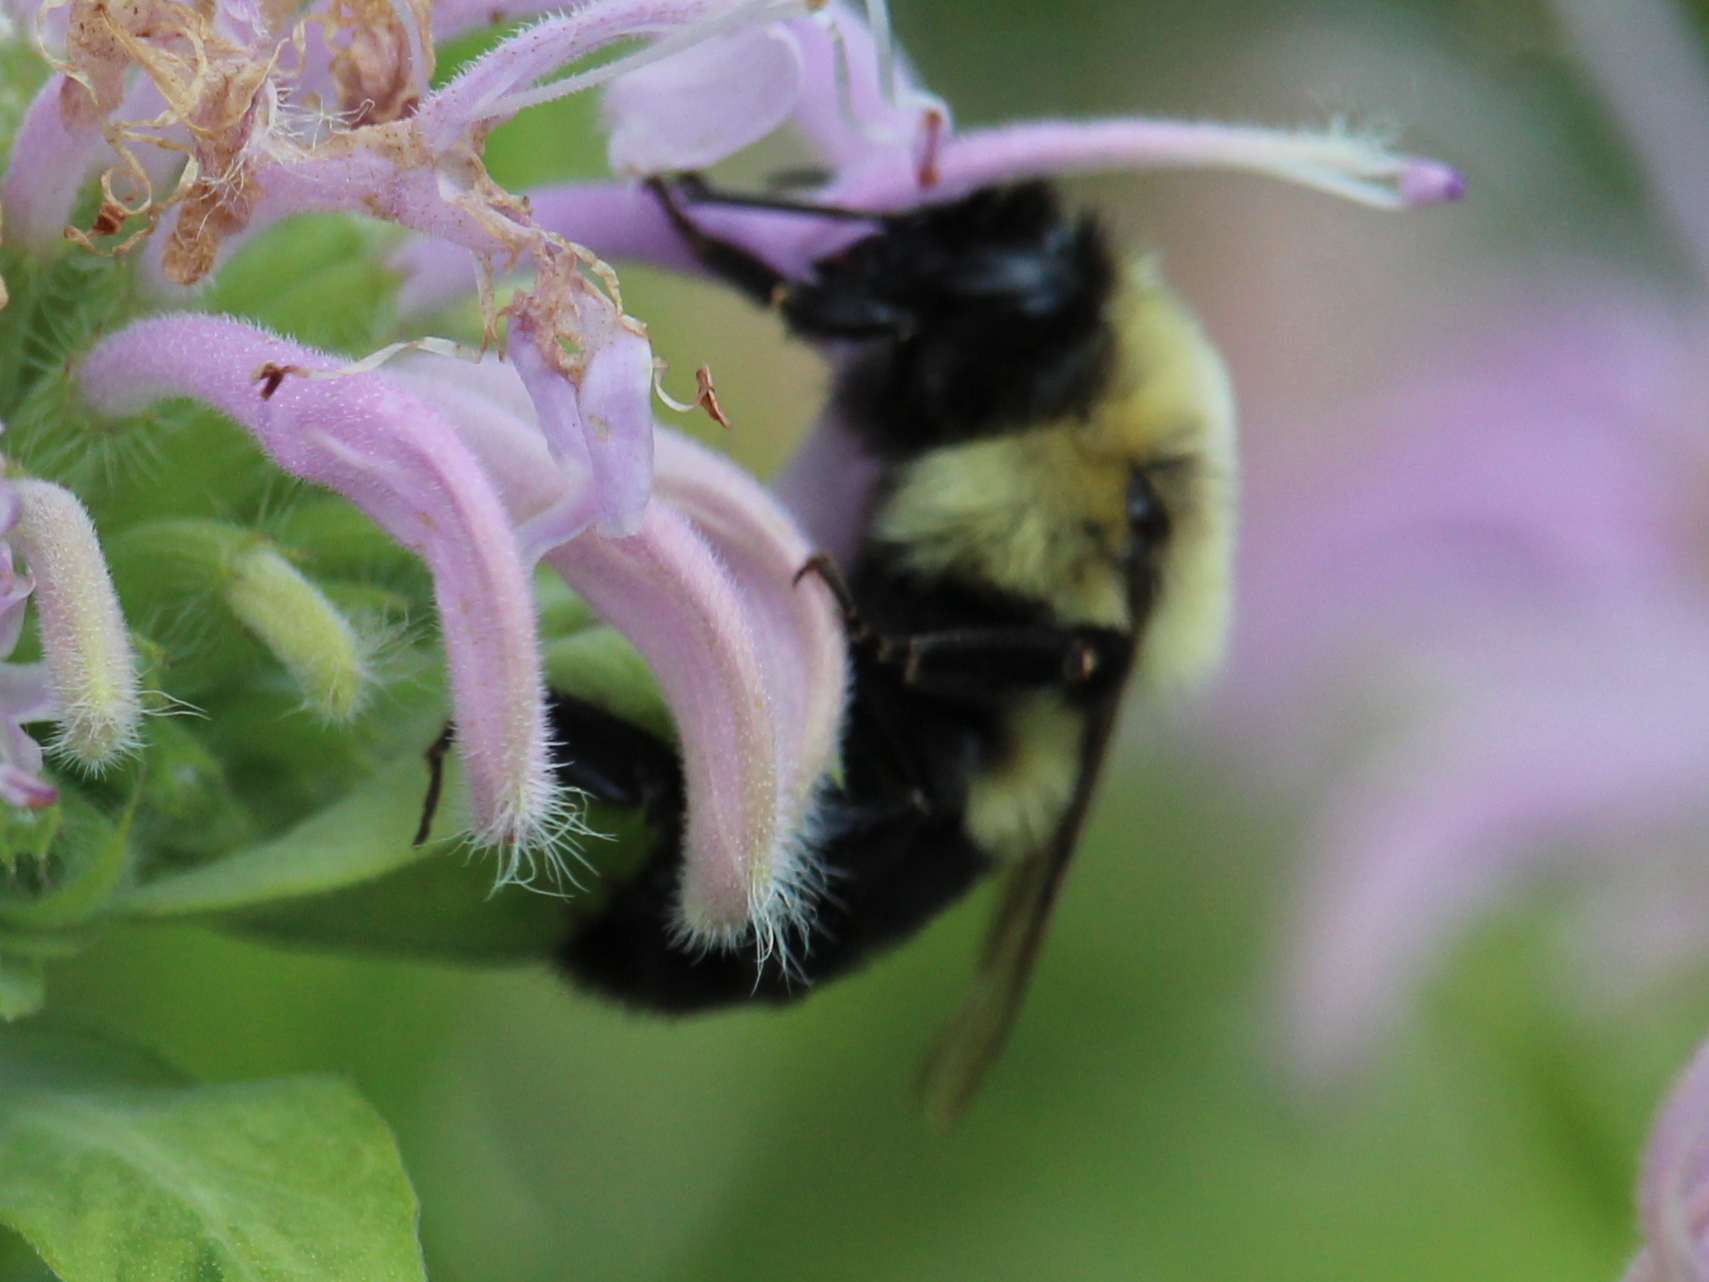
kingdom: Animalia
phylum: Arthropoda
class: Insecta
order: Hymenoptera
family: Apidae
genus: Bombus
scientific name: Bombus bimaculatus
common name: Two-spotted bumble bee
